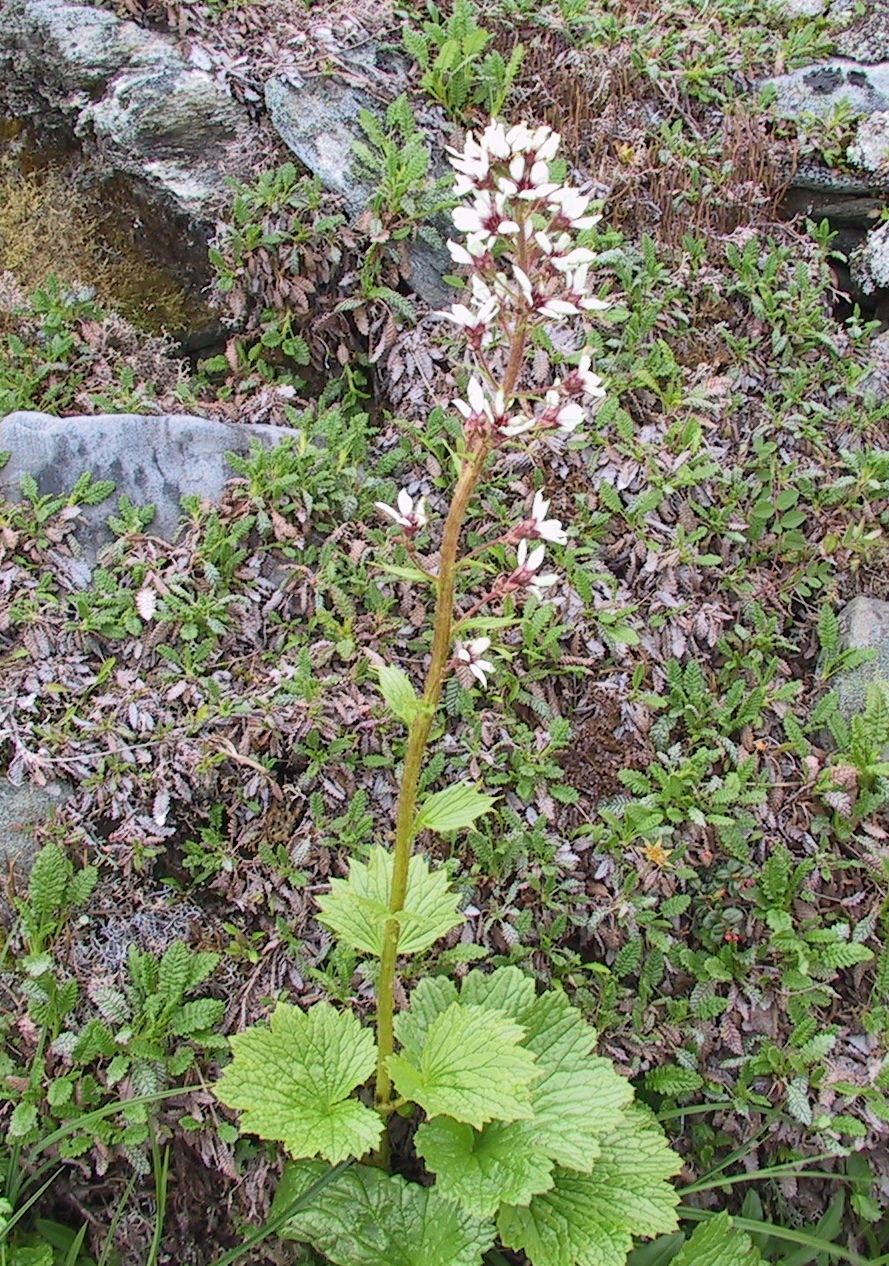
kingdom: Plantae
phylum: Tracheophyta
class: Magnoliopsida
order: Saxifragales
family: Saxifragaceae
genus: Boykinia
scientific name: Boykinia richardsonii
